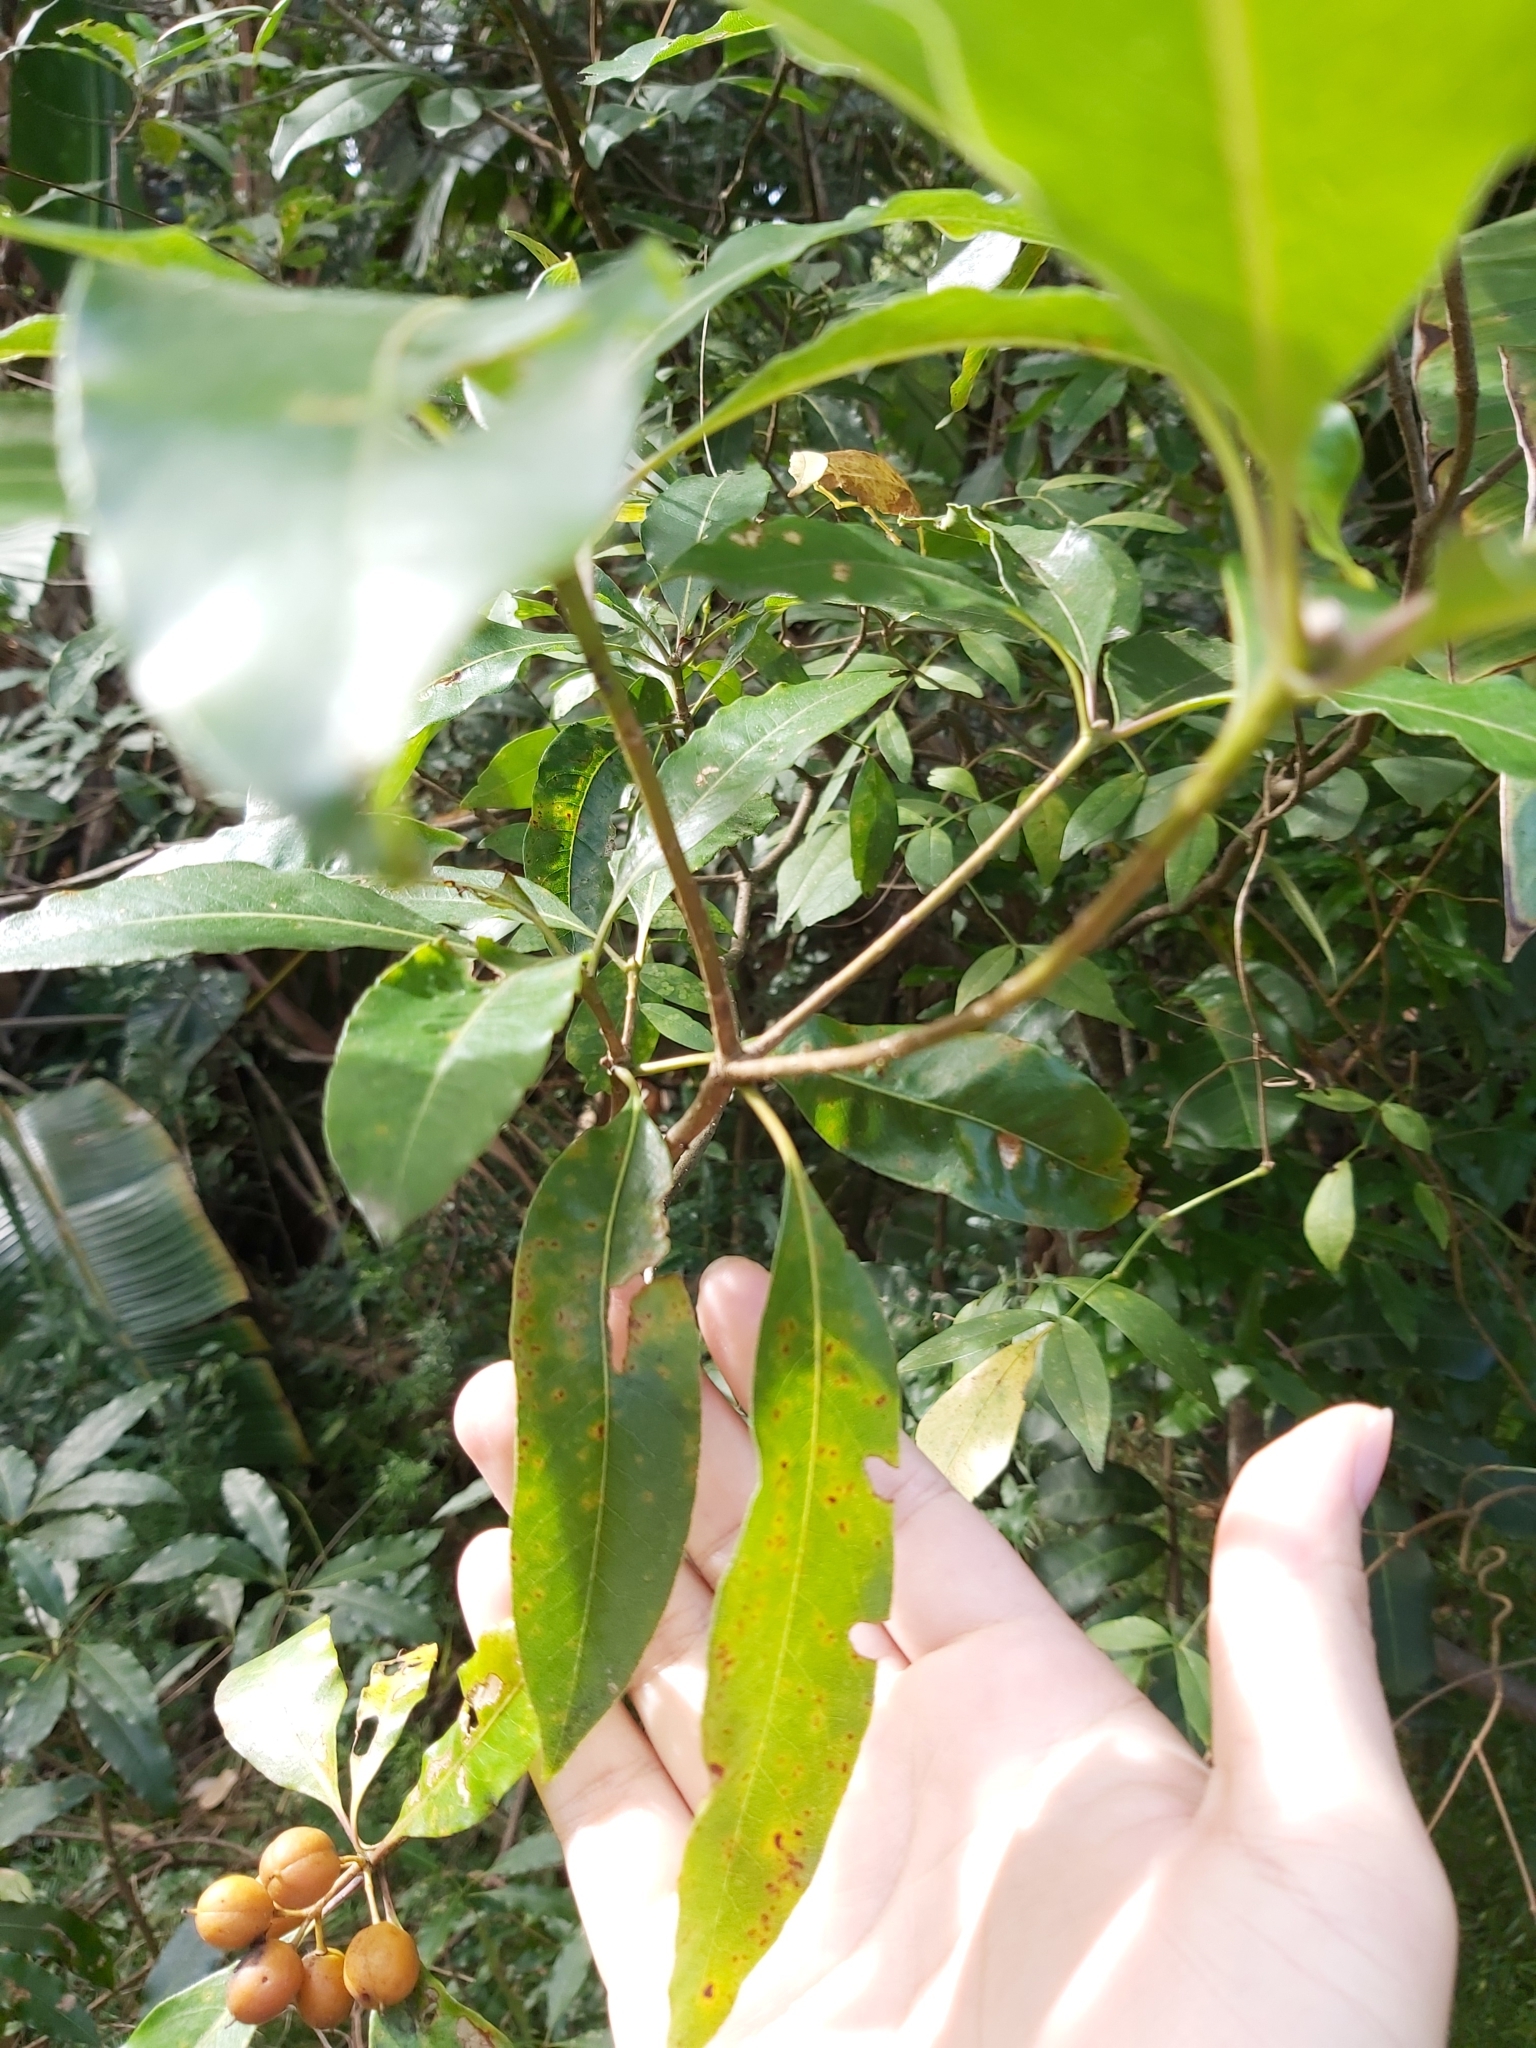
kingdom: Plantae
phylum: Tracheophyta
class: Magnoliopsida
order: Apiales
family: Pittosporaceae
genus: Pittosporum
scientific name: Pittosporum undulatum
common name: Australian cheesewood
